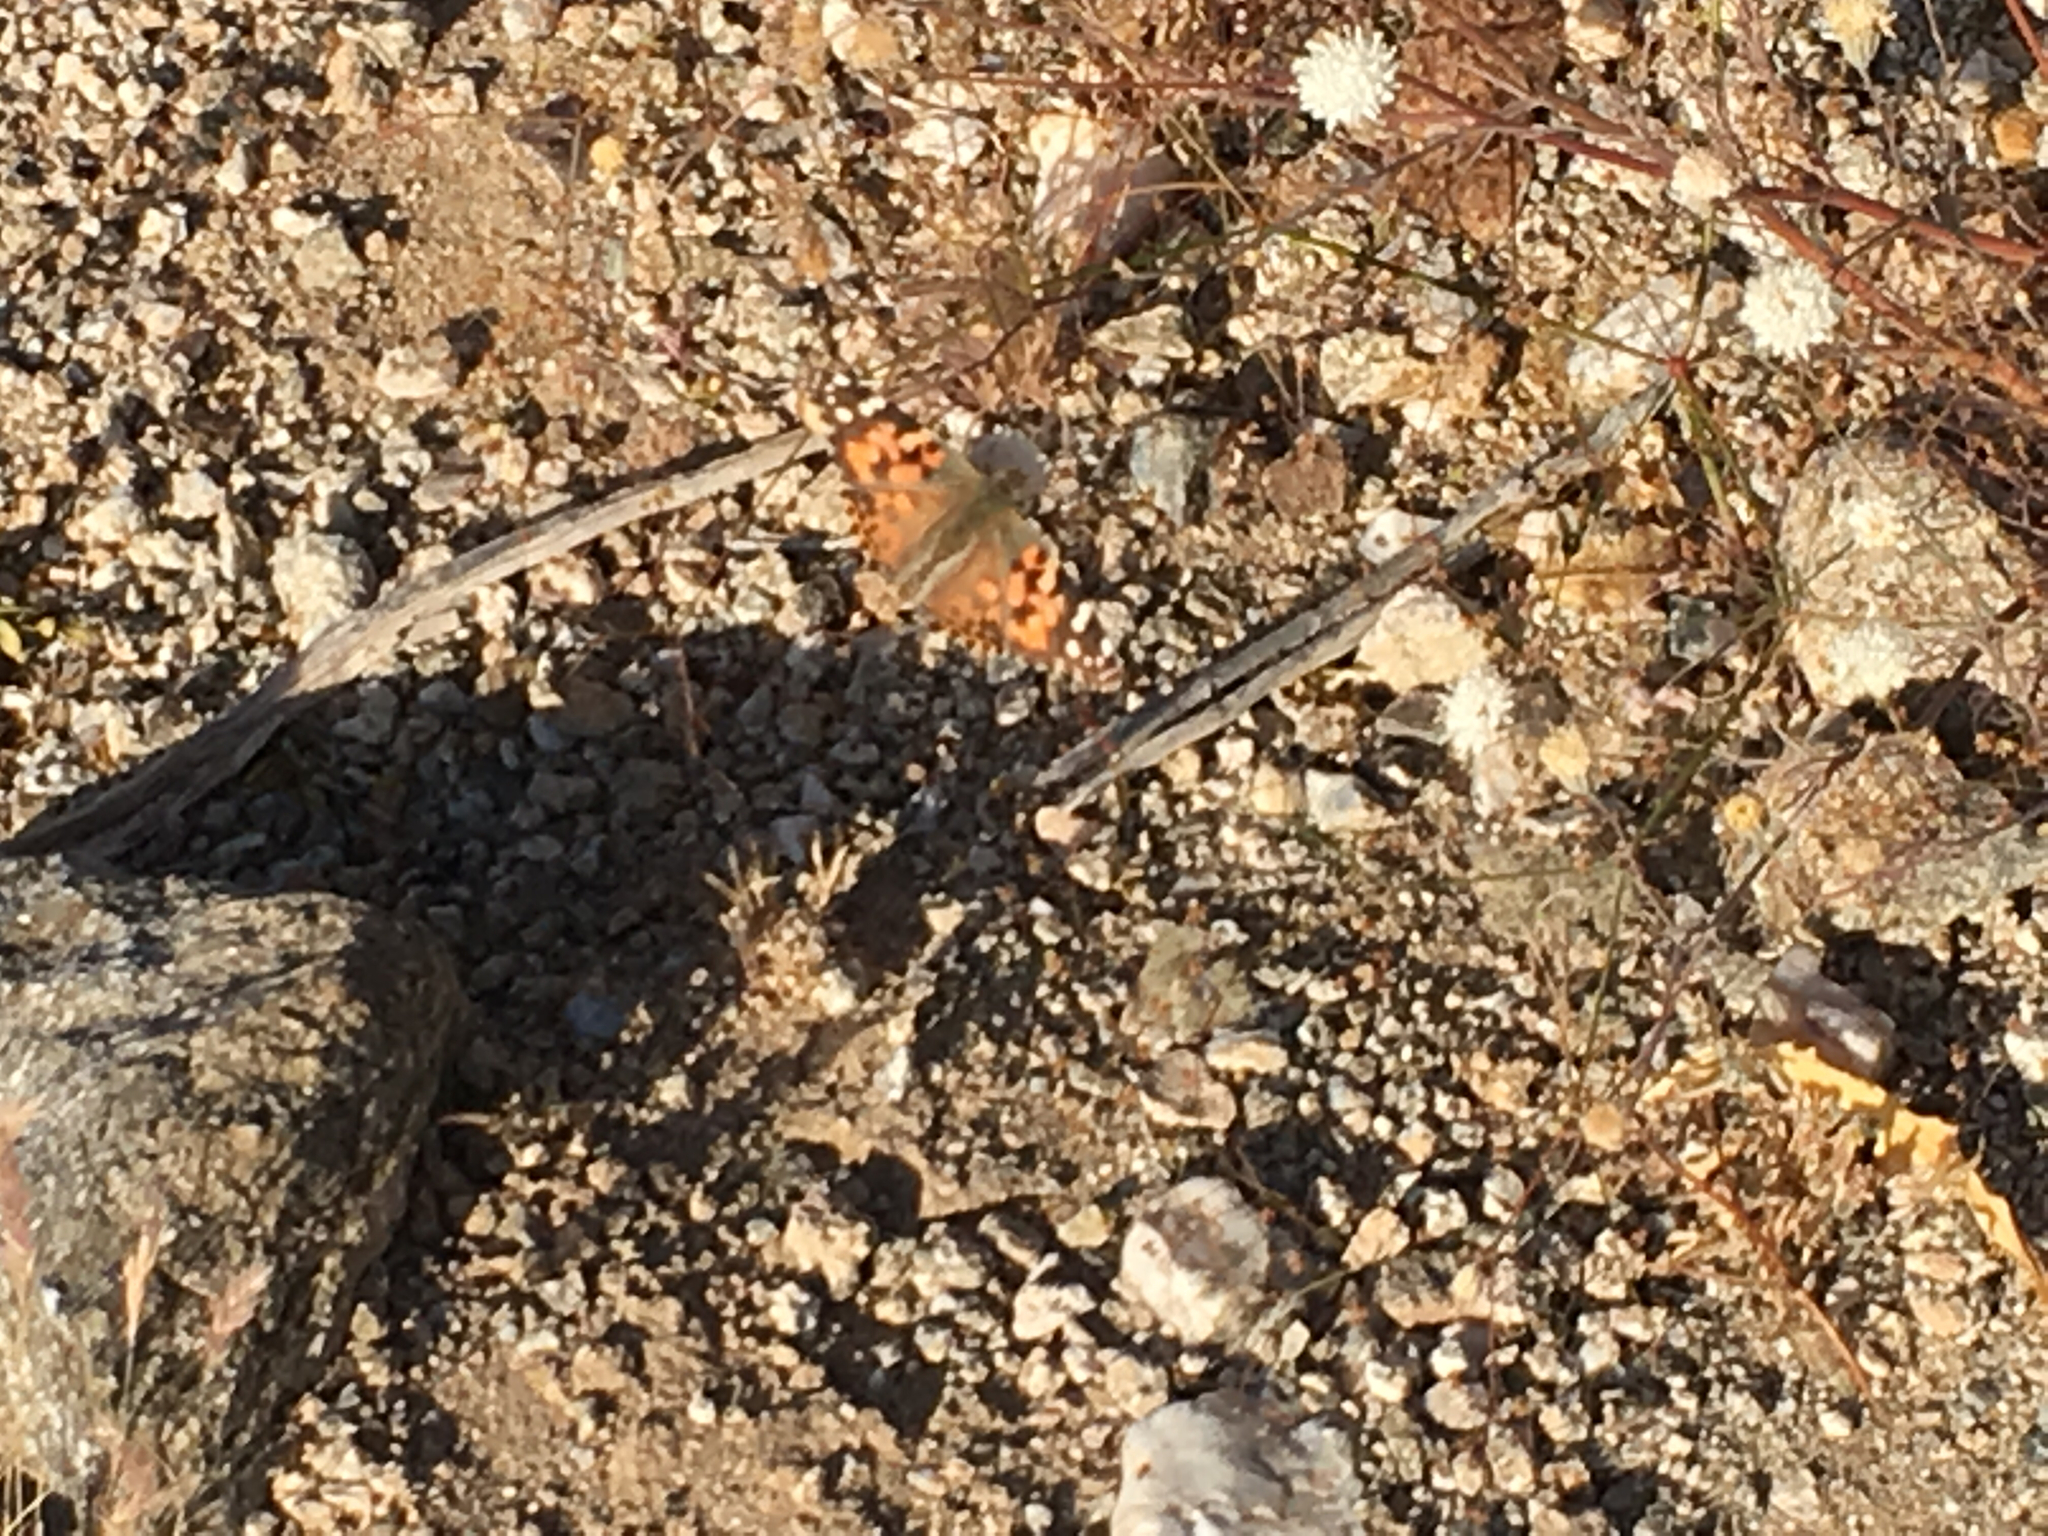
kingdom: Animalia
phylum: Arthropoda
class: Insecta
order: Lepidoptera
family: Nymphalidae
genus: Vanessa
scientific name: Vanessa cardui
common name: Painted lady
